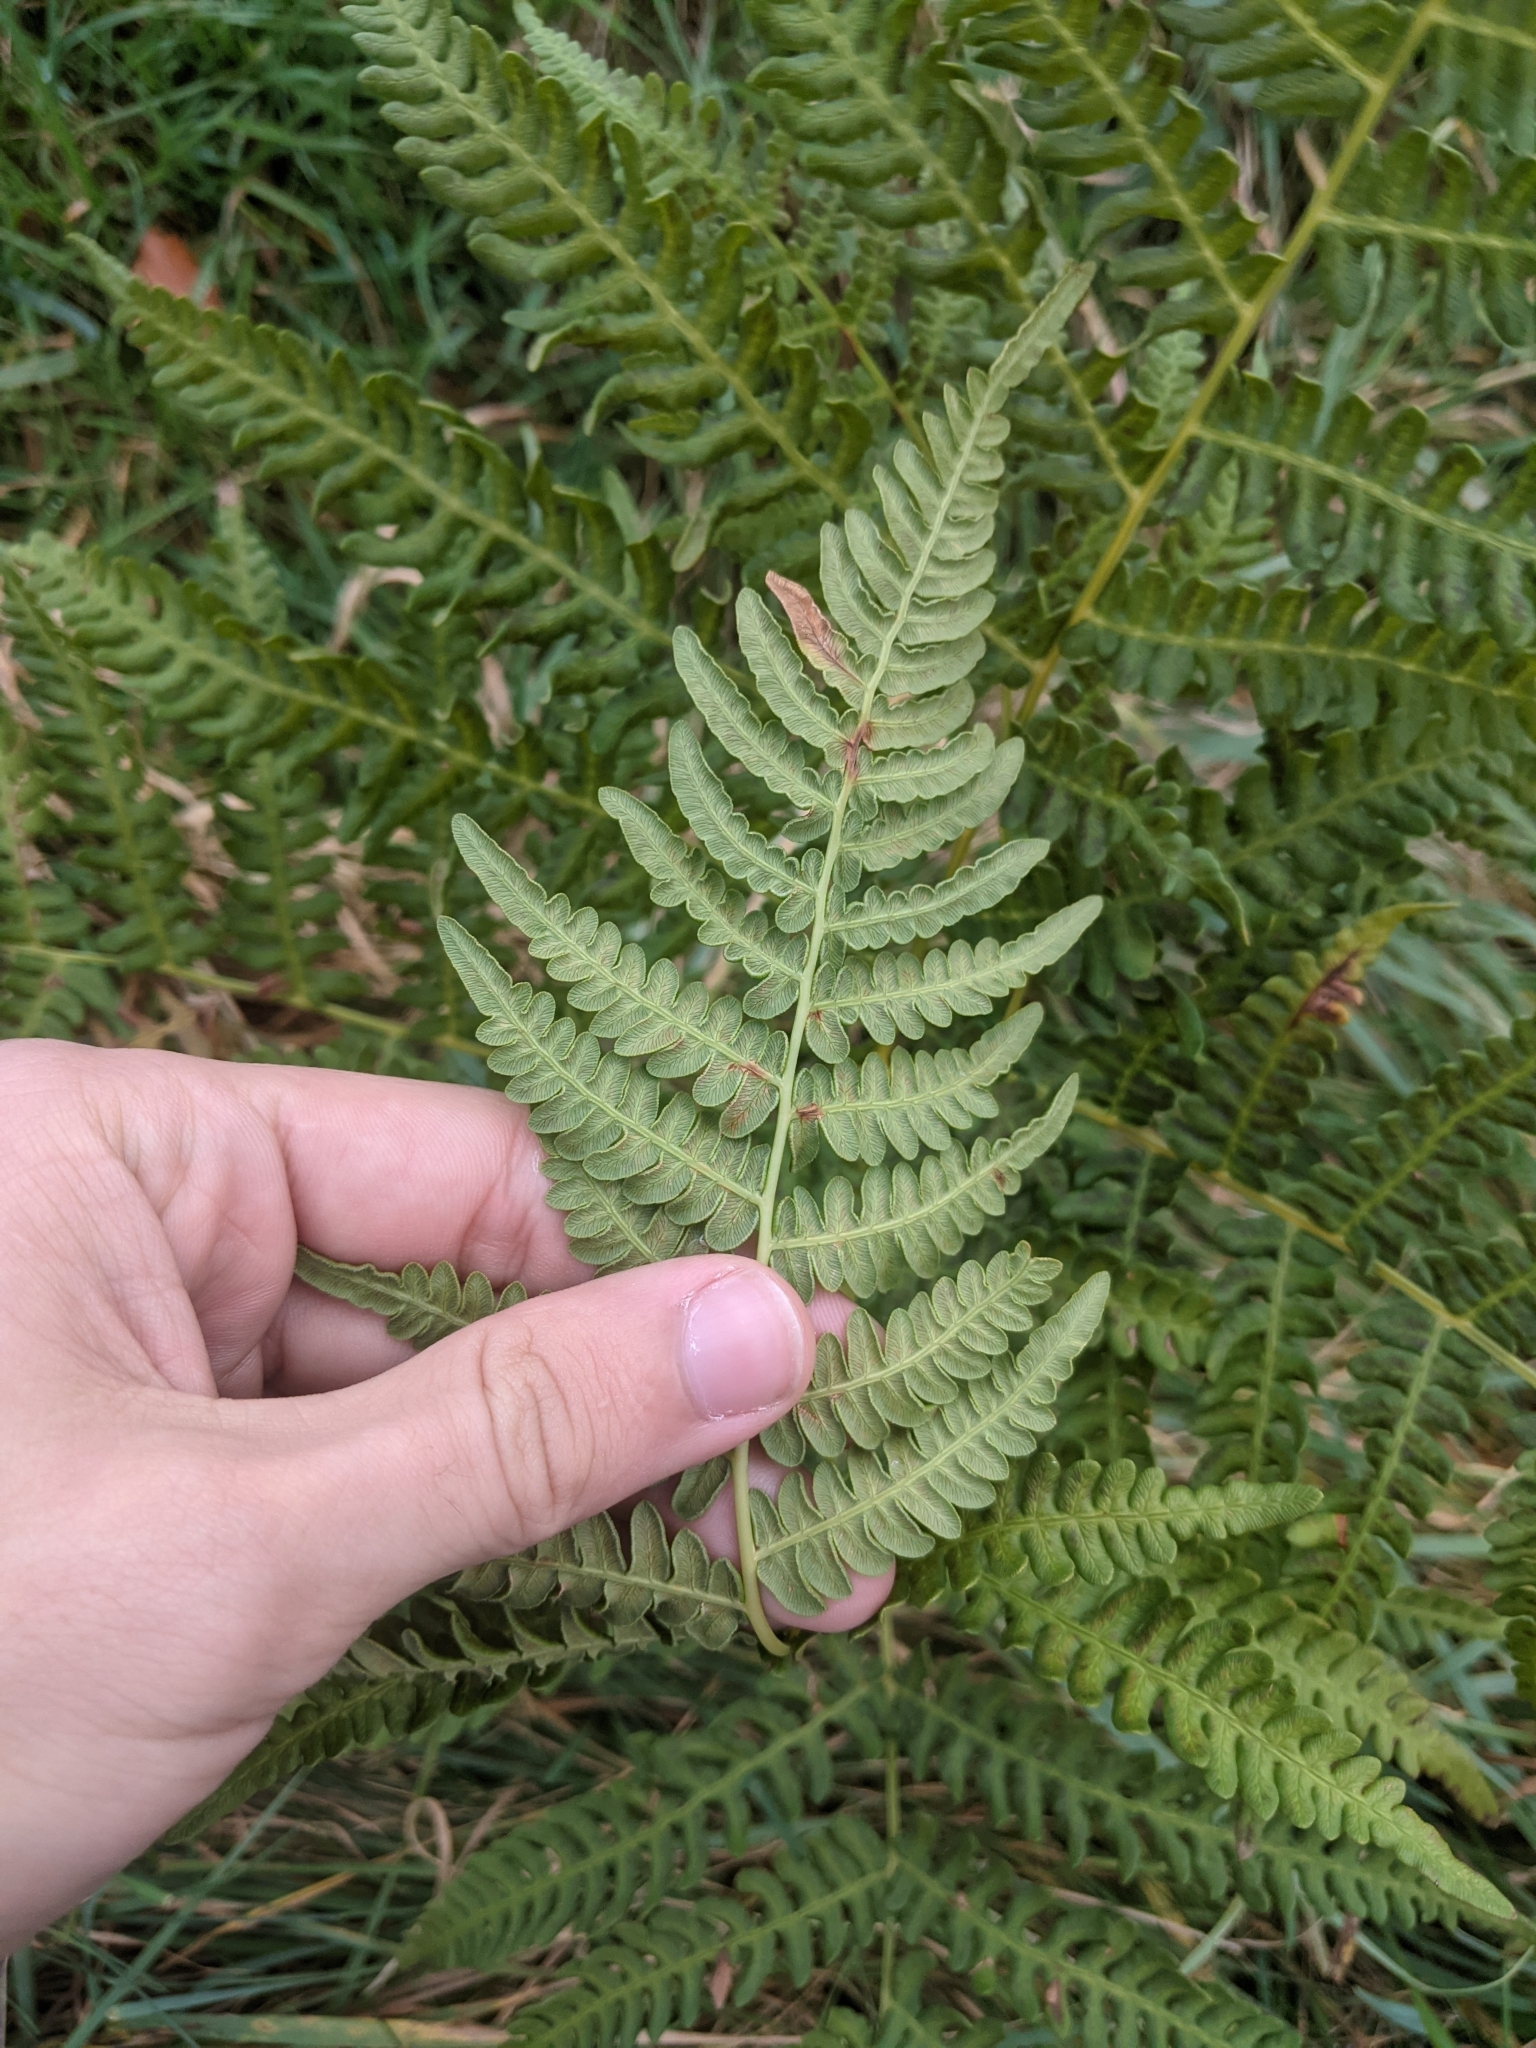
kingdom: Plantae
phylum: Tracheophyta
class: Polypodiopsida
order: Polypodiales
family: Dennstaedtiaceae
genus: Pteridium
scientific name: Pteridium aquilinum
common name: Bracken
